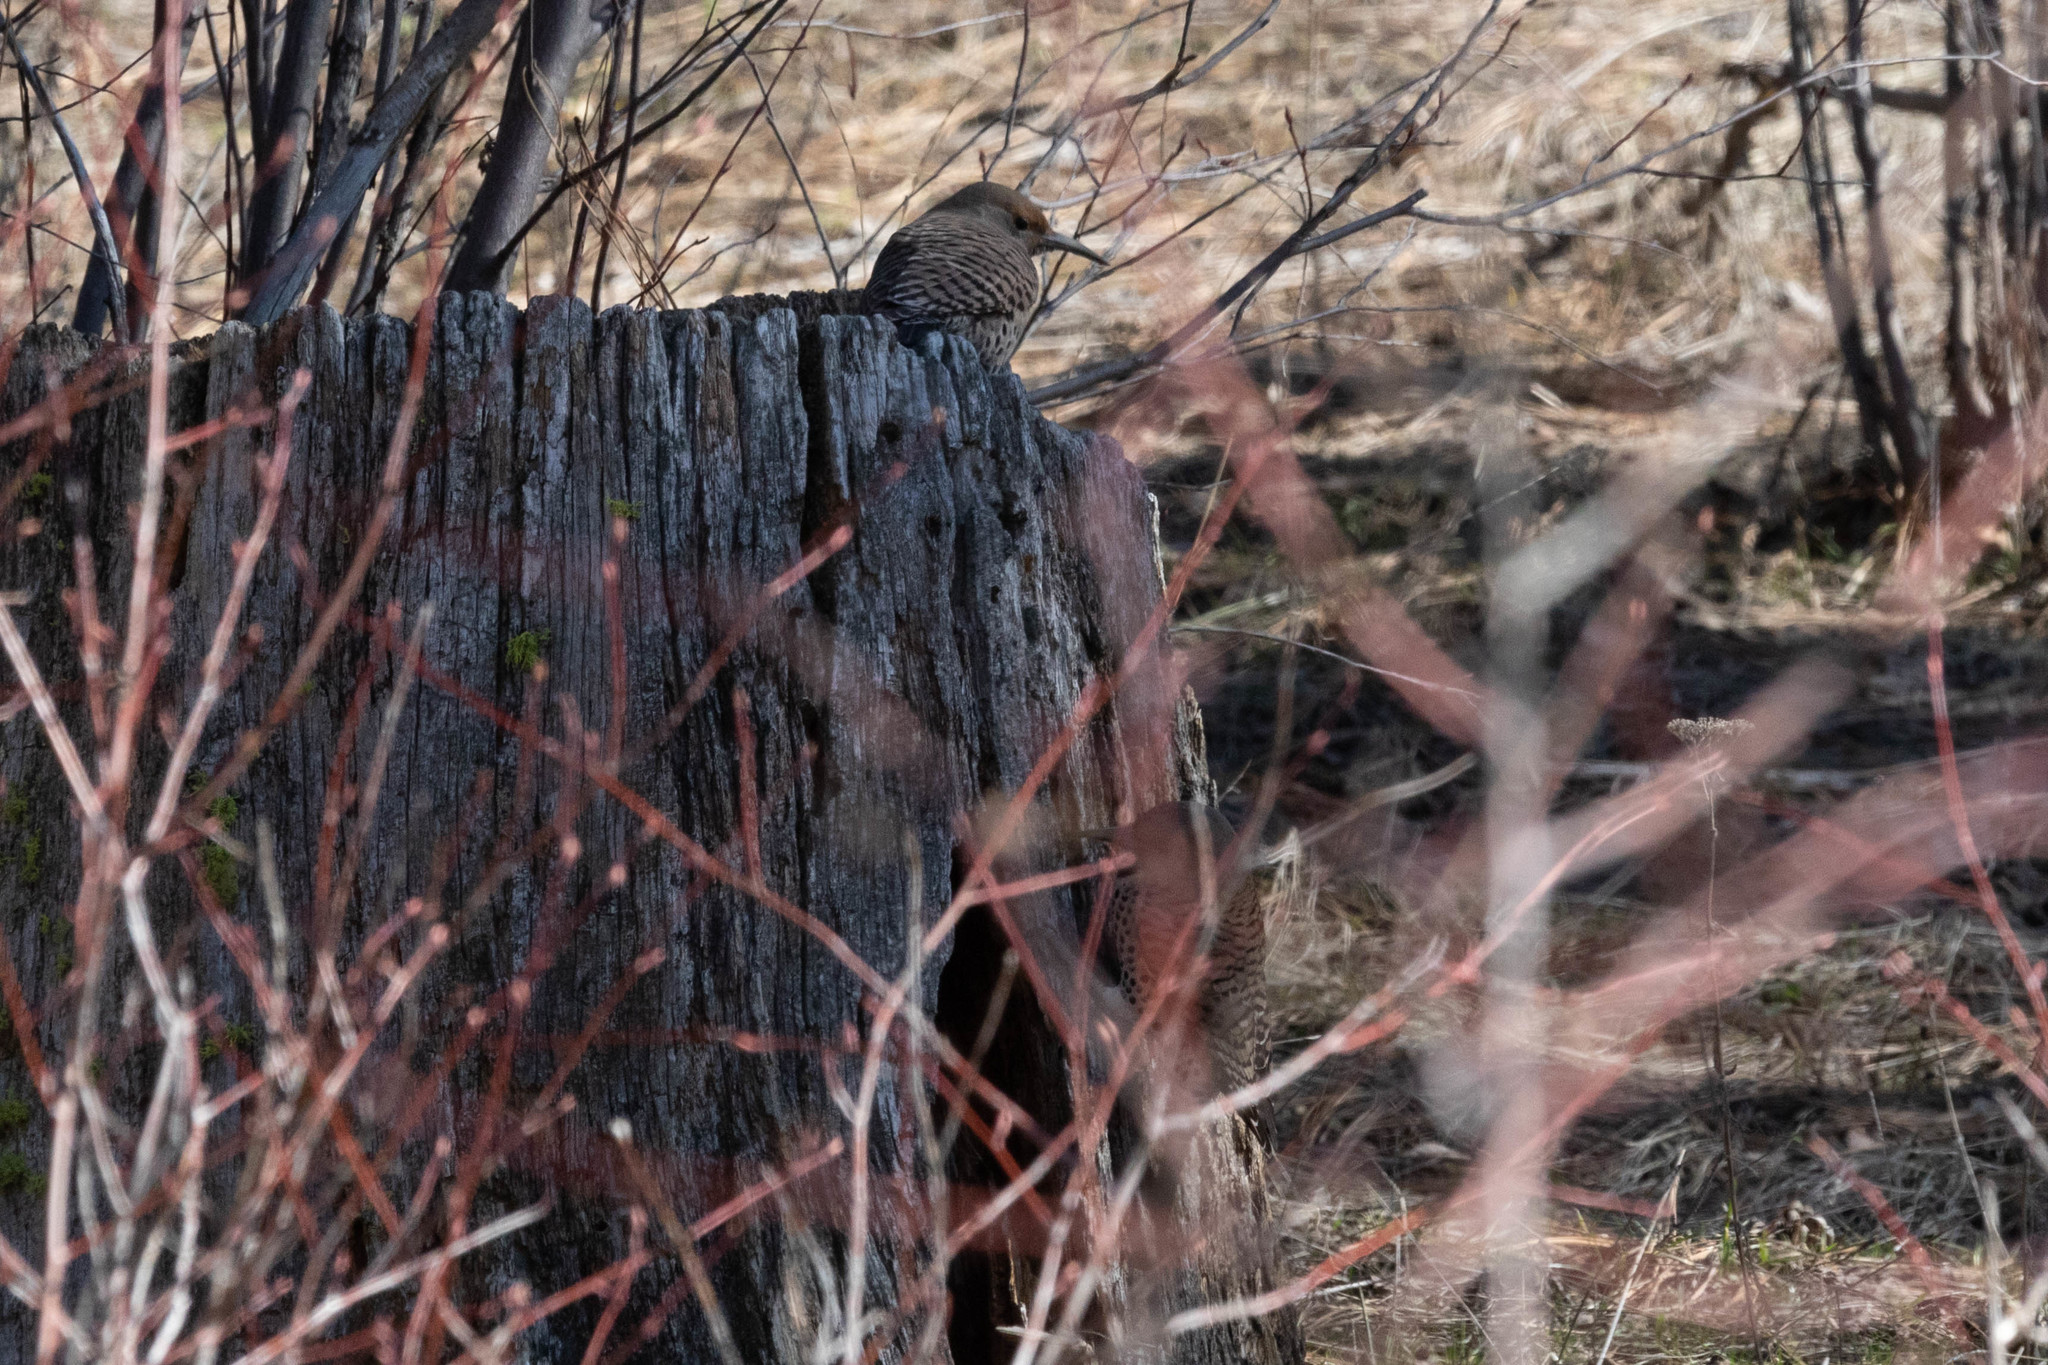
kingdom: Animalia
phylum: Chordata
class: Aves
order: Piciformes
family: Picidae
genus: Colaptes
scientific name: Colaptes auratus
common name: Northern flicker
